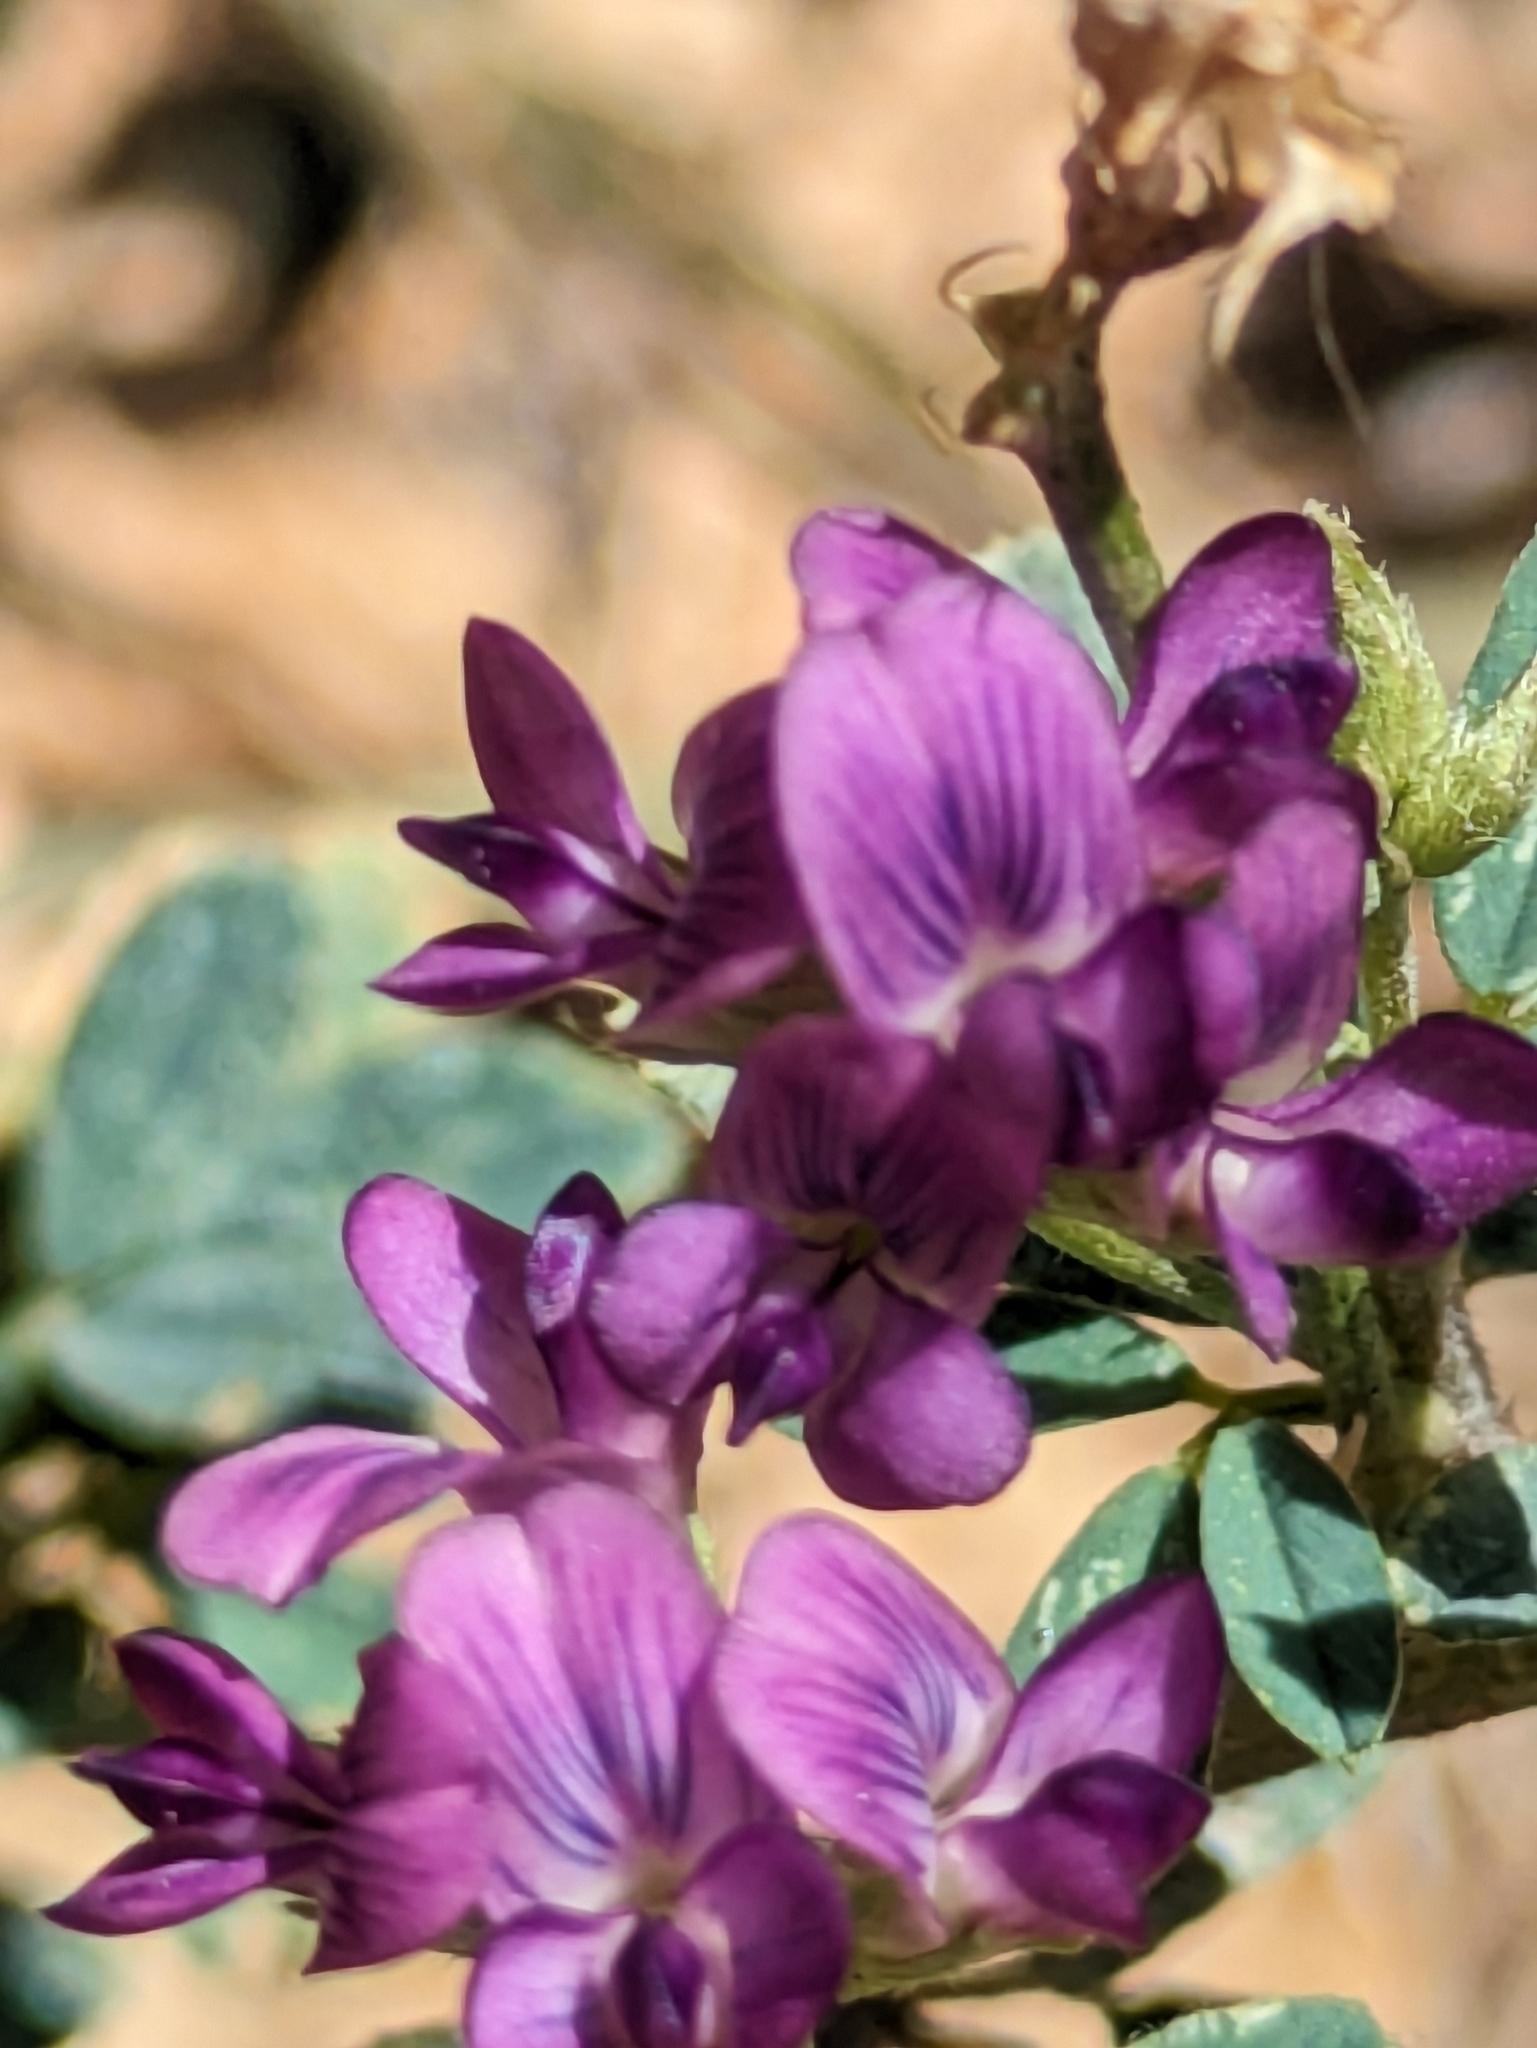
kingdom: Plantae
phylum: Tracheophyta
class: Magnoliopsida
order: Fabales
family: Fabaceae
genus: Medicago
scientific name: Medicago sativa
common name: Alfalfa
